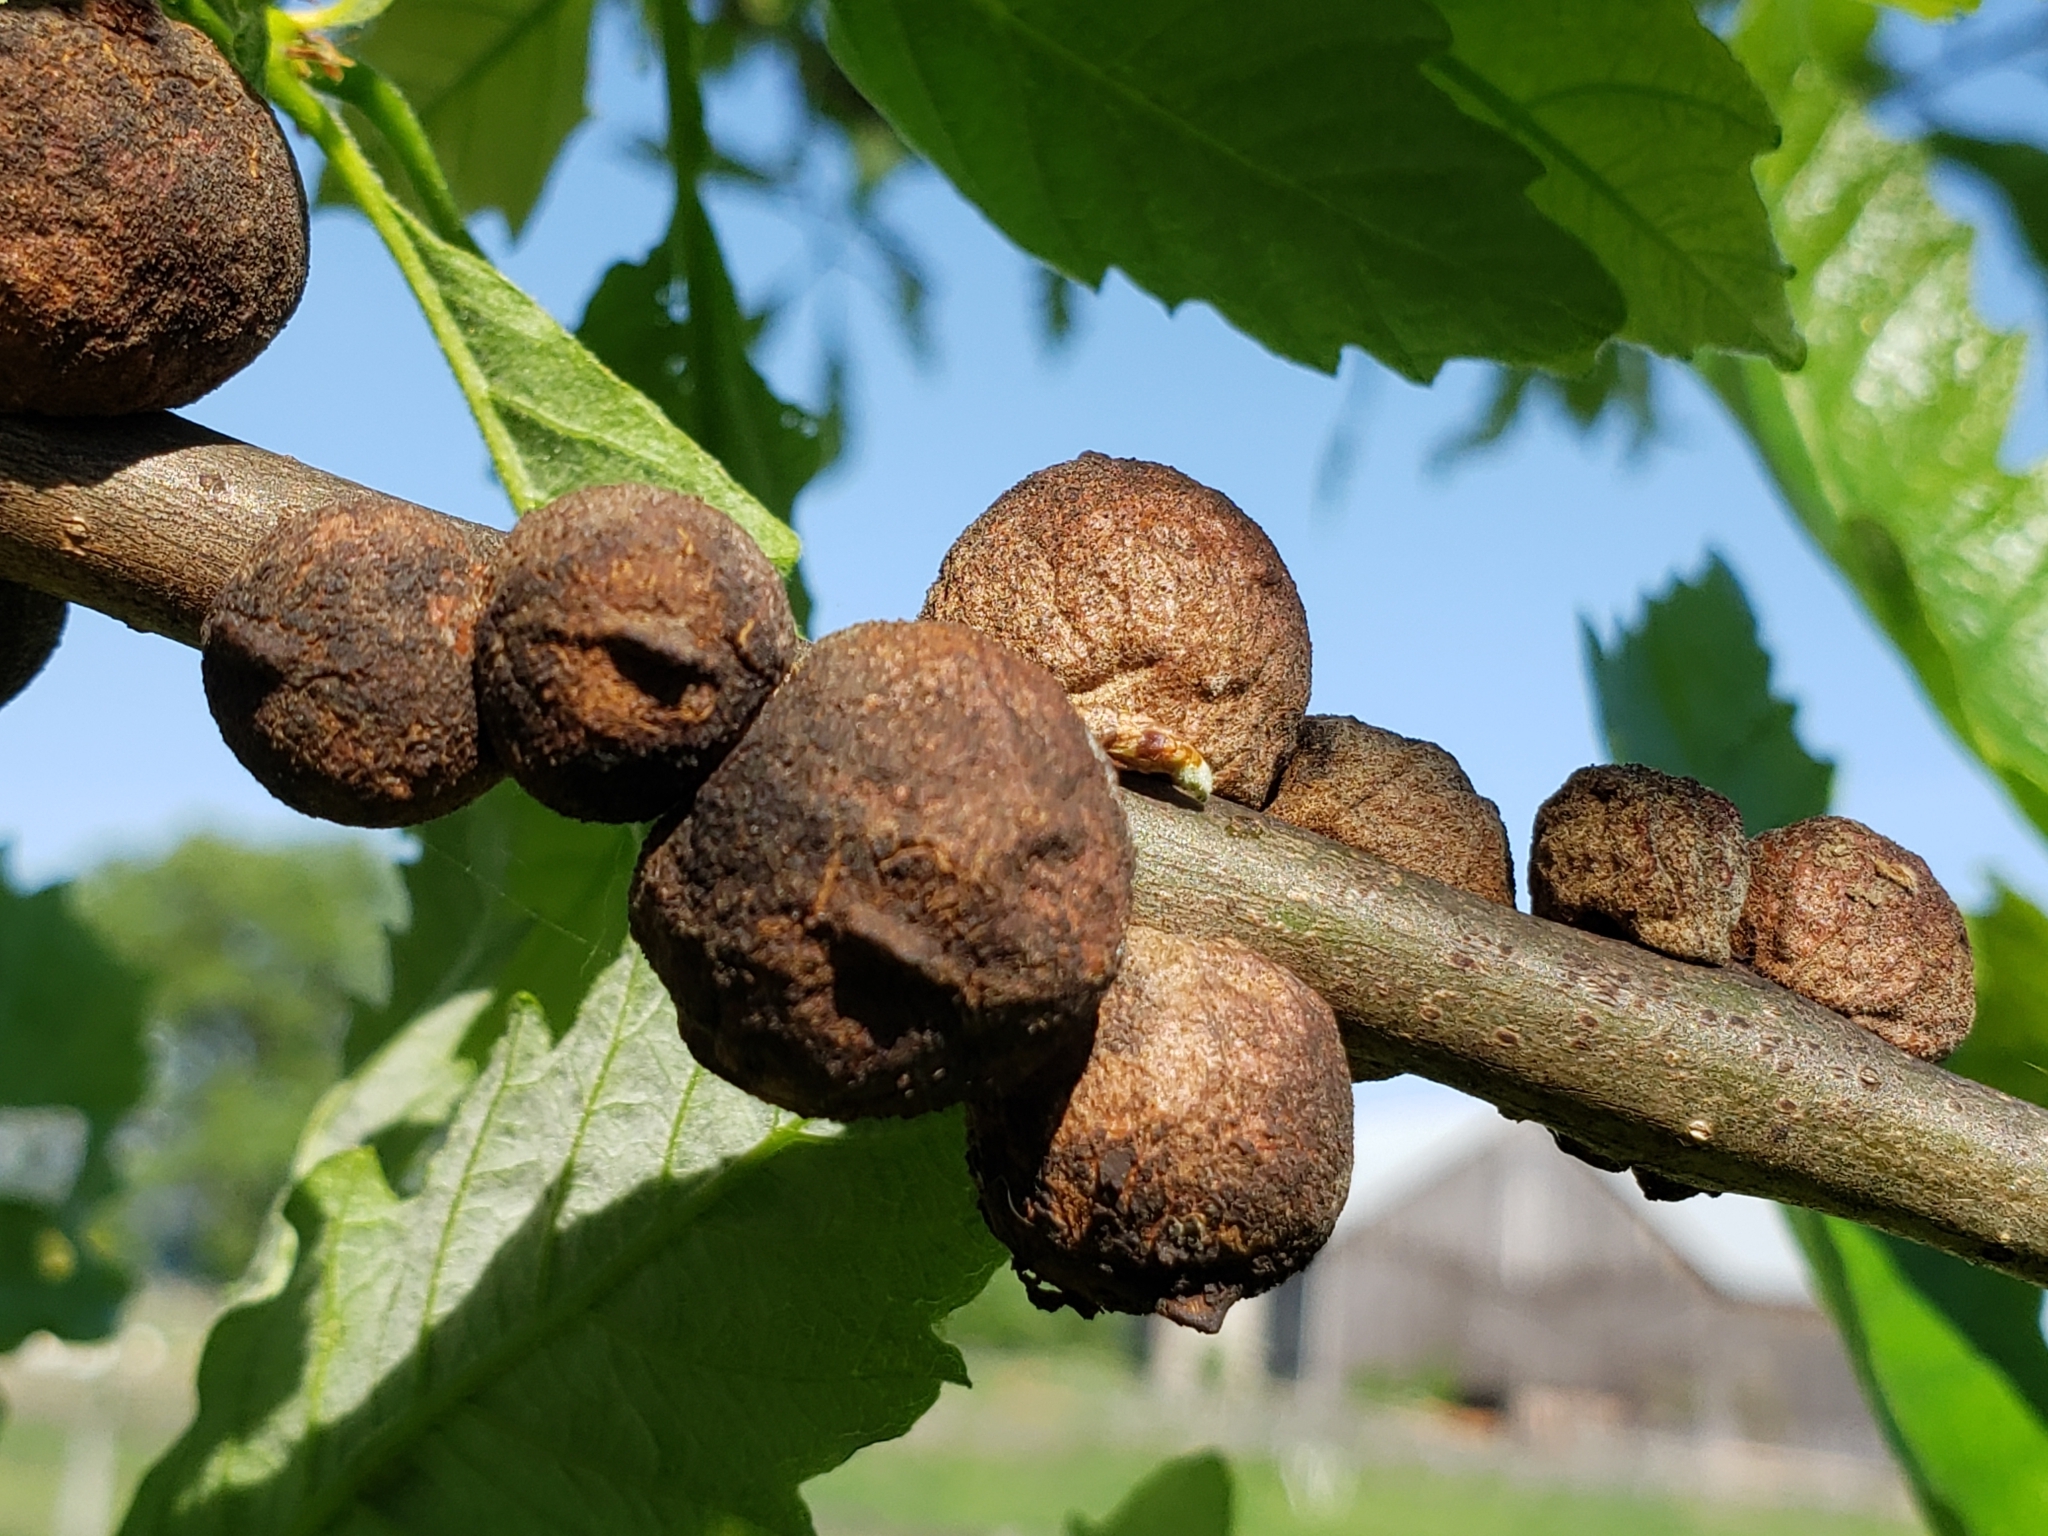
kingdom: Animalia
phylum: Arthropoda
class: Insecta
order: Hymenoptera
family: Cynipidae
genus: Disholcaspis
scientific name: Disholcaspis
